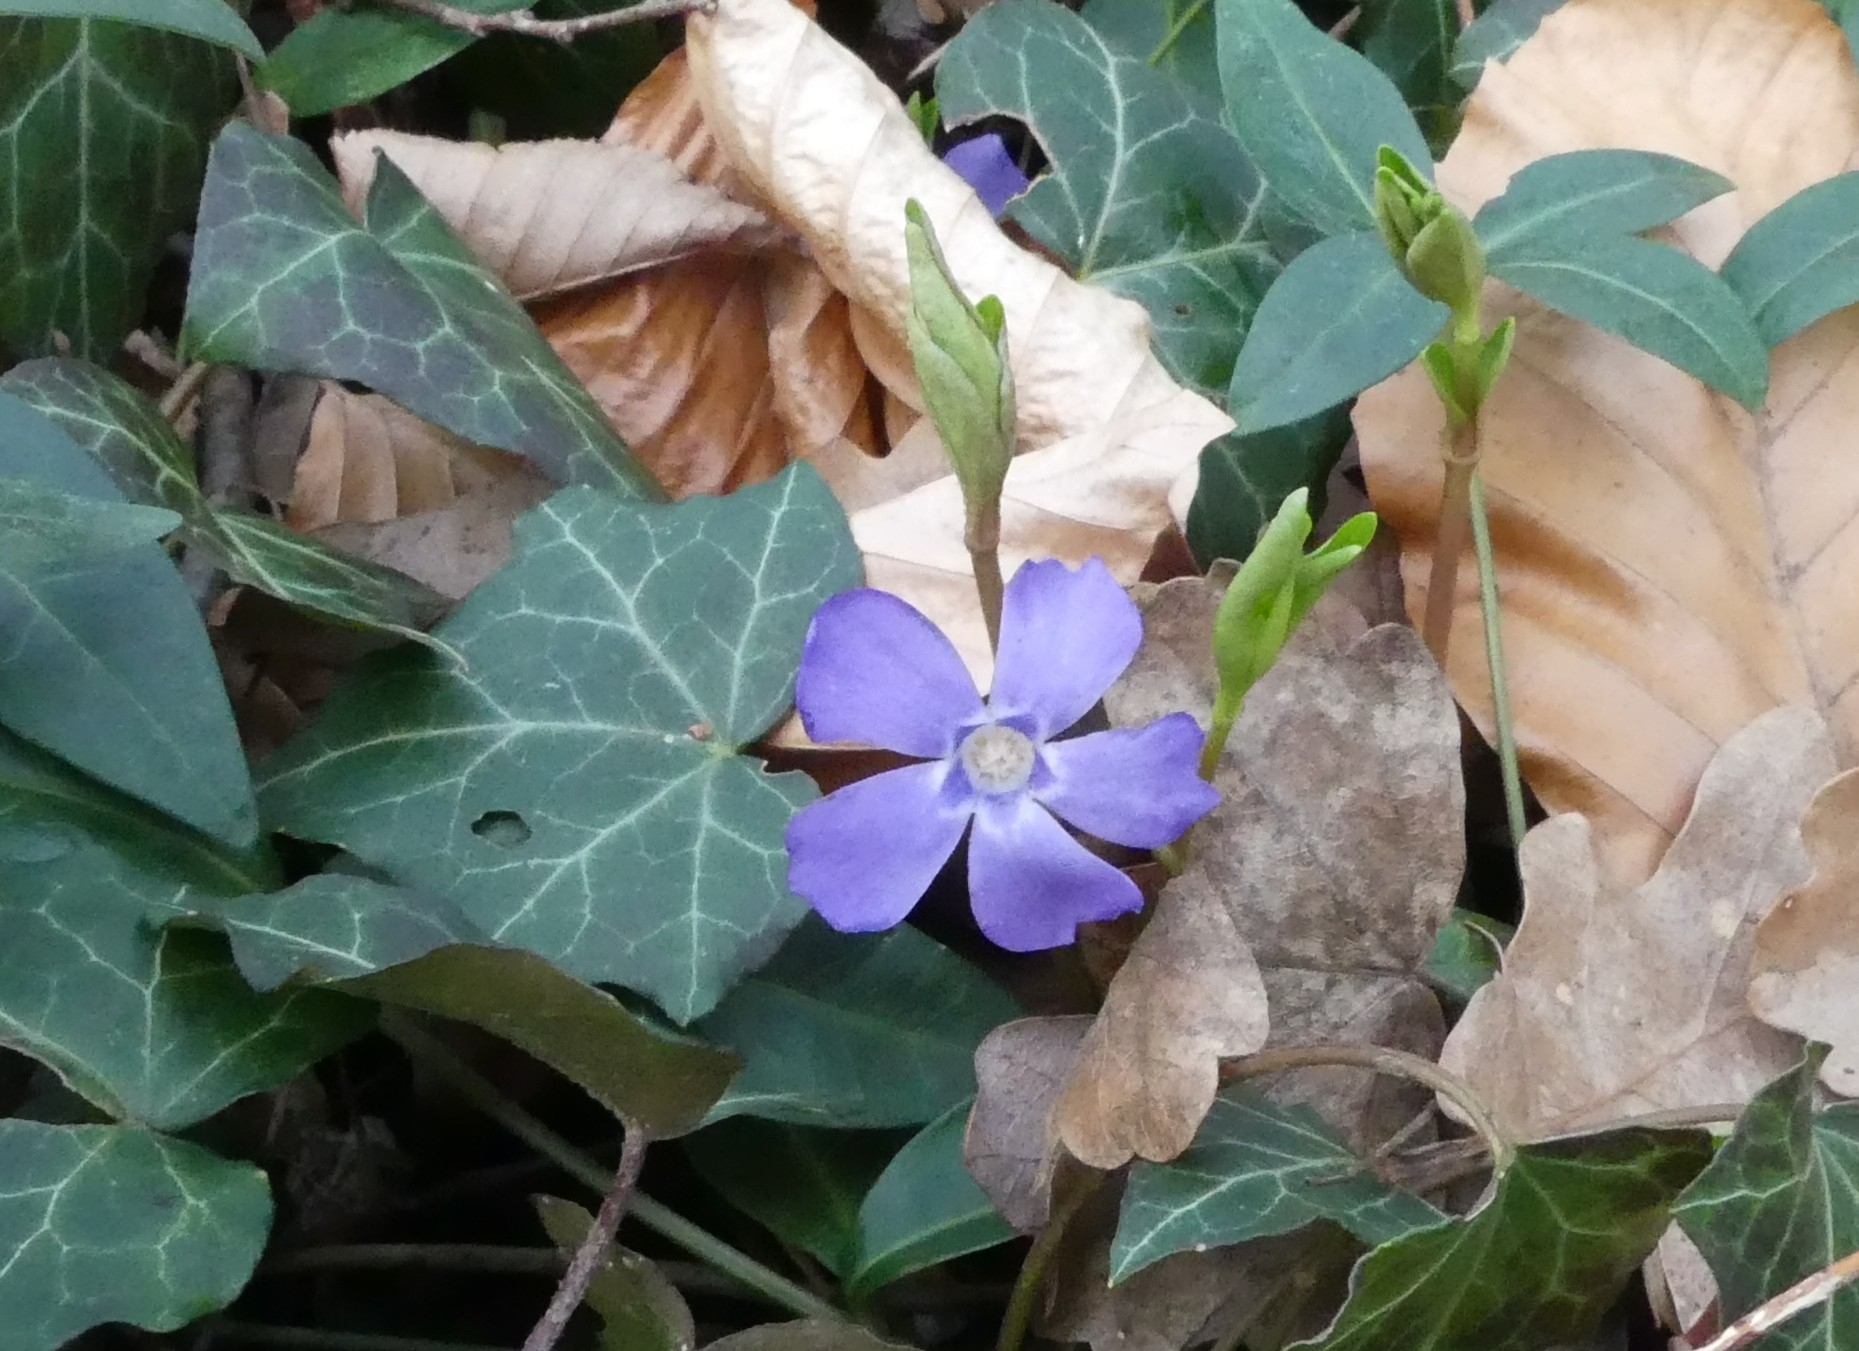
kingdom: Plantae
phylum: Tracheophyta
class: Magnoliopsida
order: Gentianales
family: Apocynaceae
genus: Vinca
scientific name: Vinca minor
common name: Lesser periwinkle
